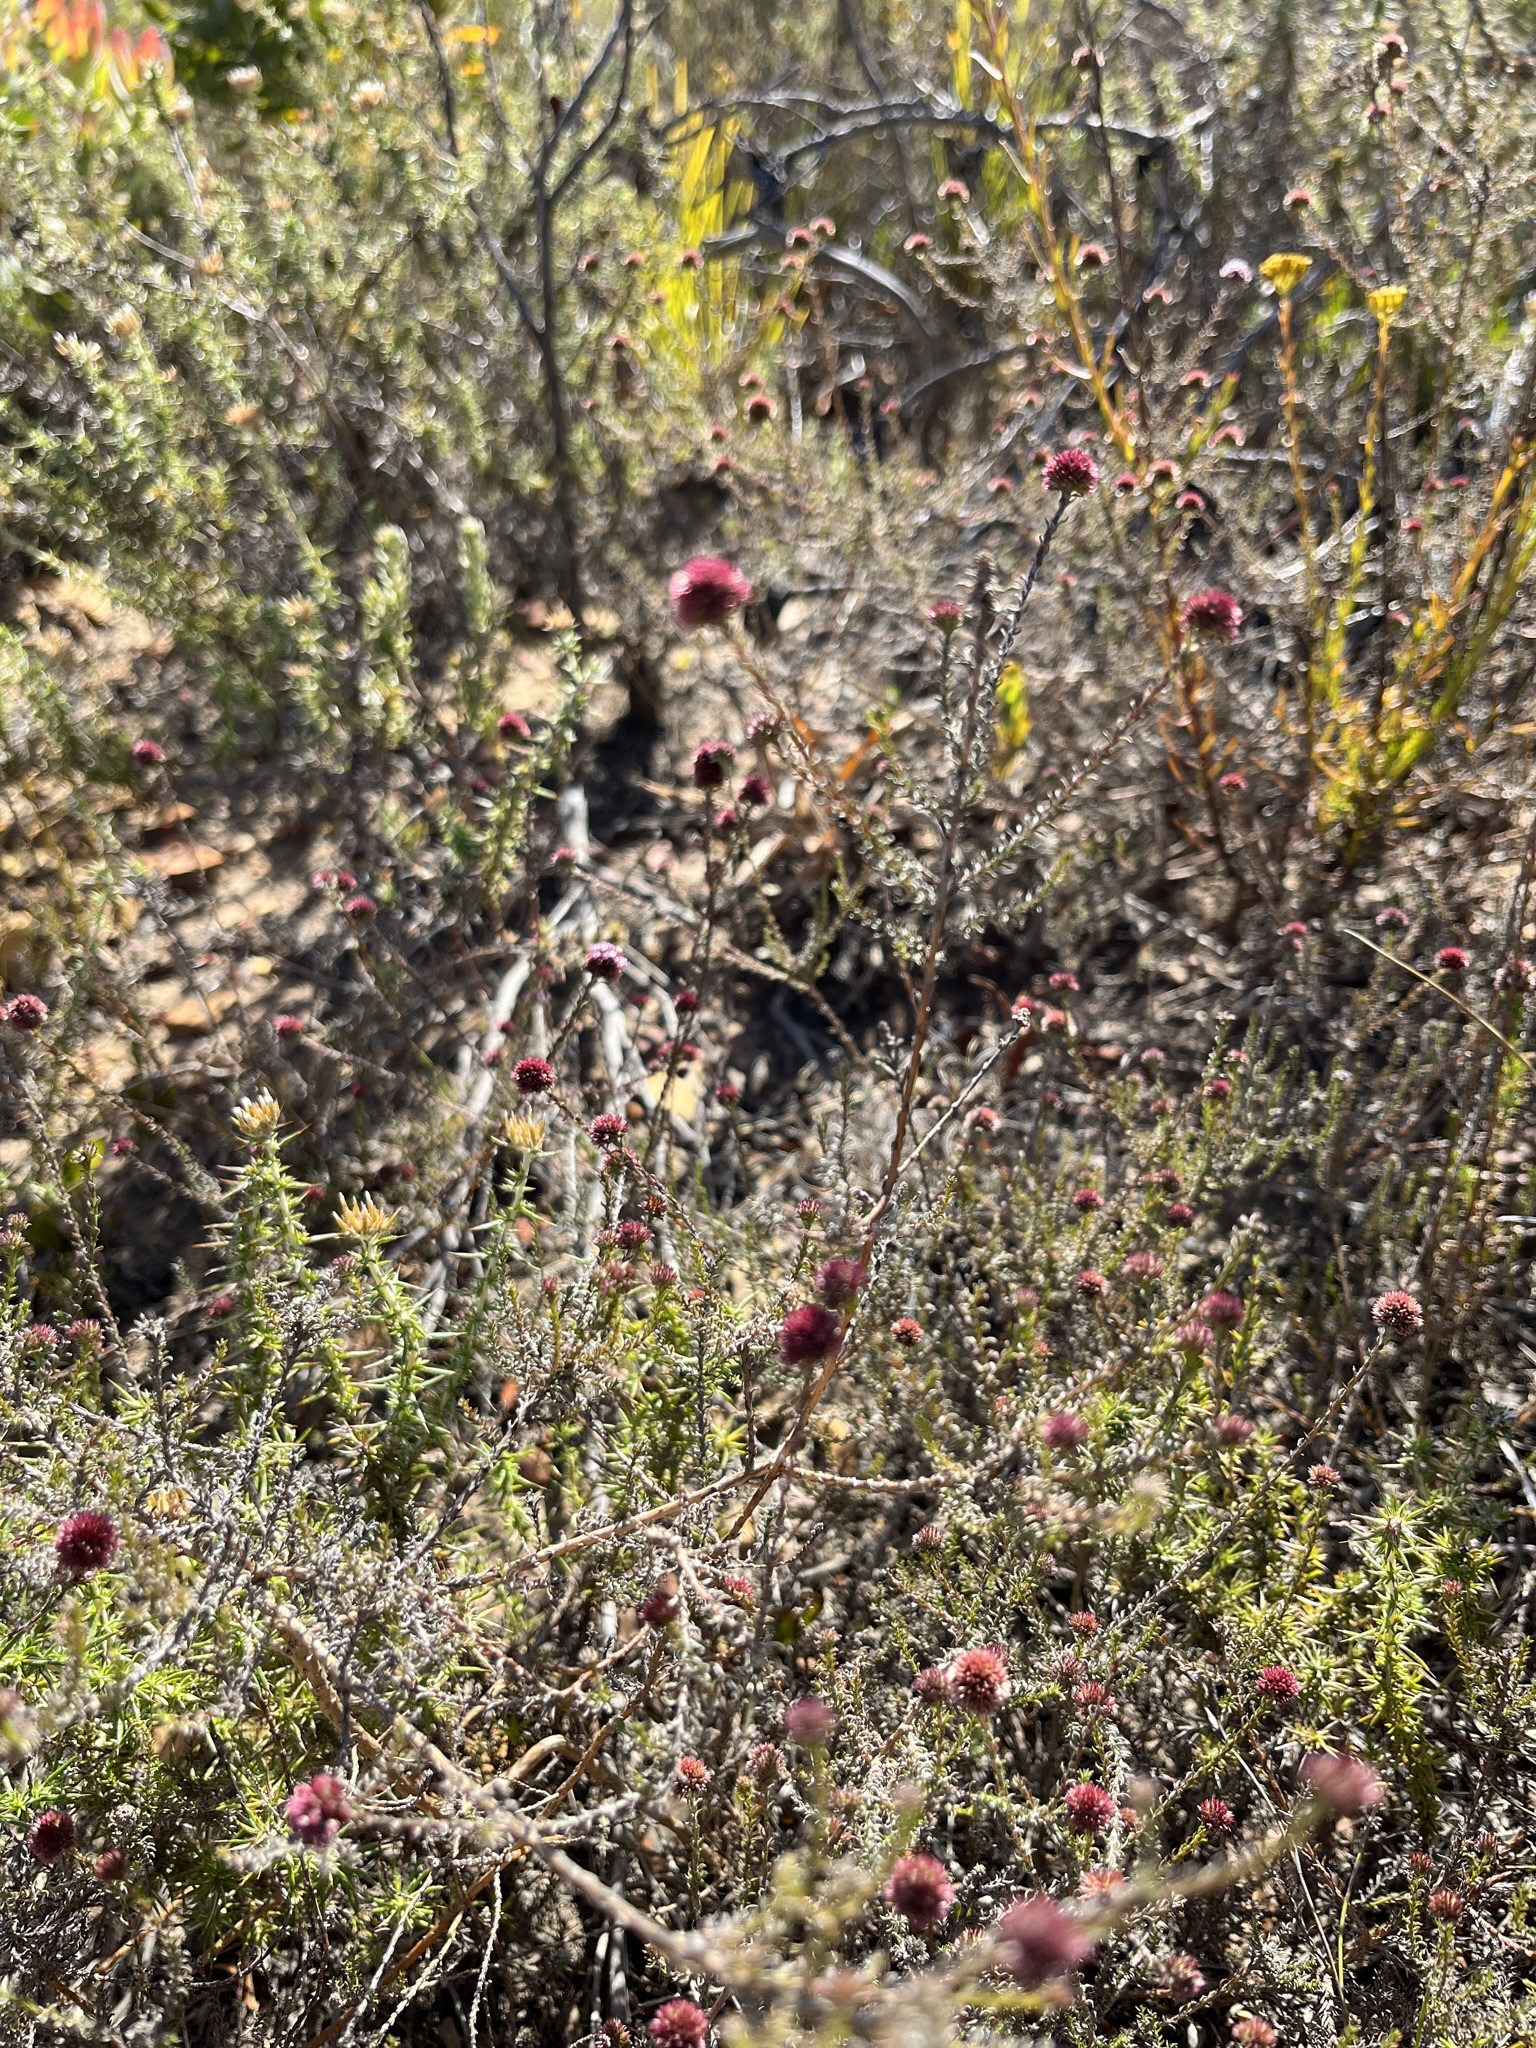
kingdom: Plantae
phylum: Tracheophyta
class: Magnoliopsida
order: Asterales
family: Asteraceae
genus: Stoebe
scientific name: Stoebe capitata
